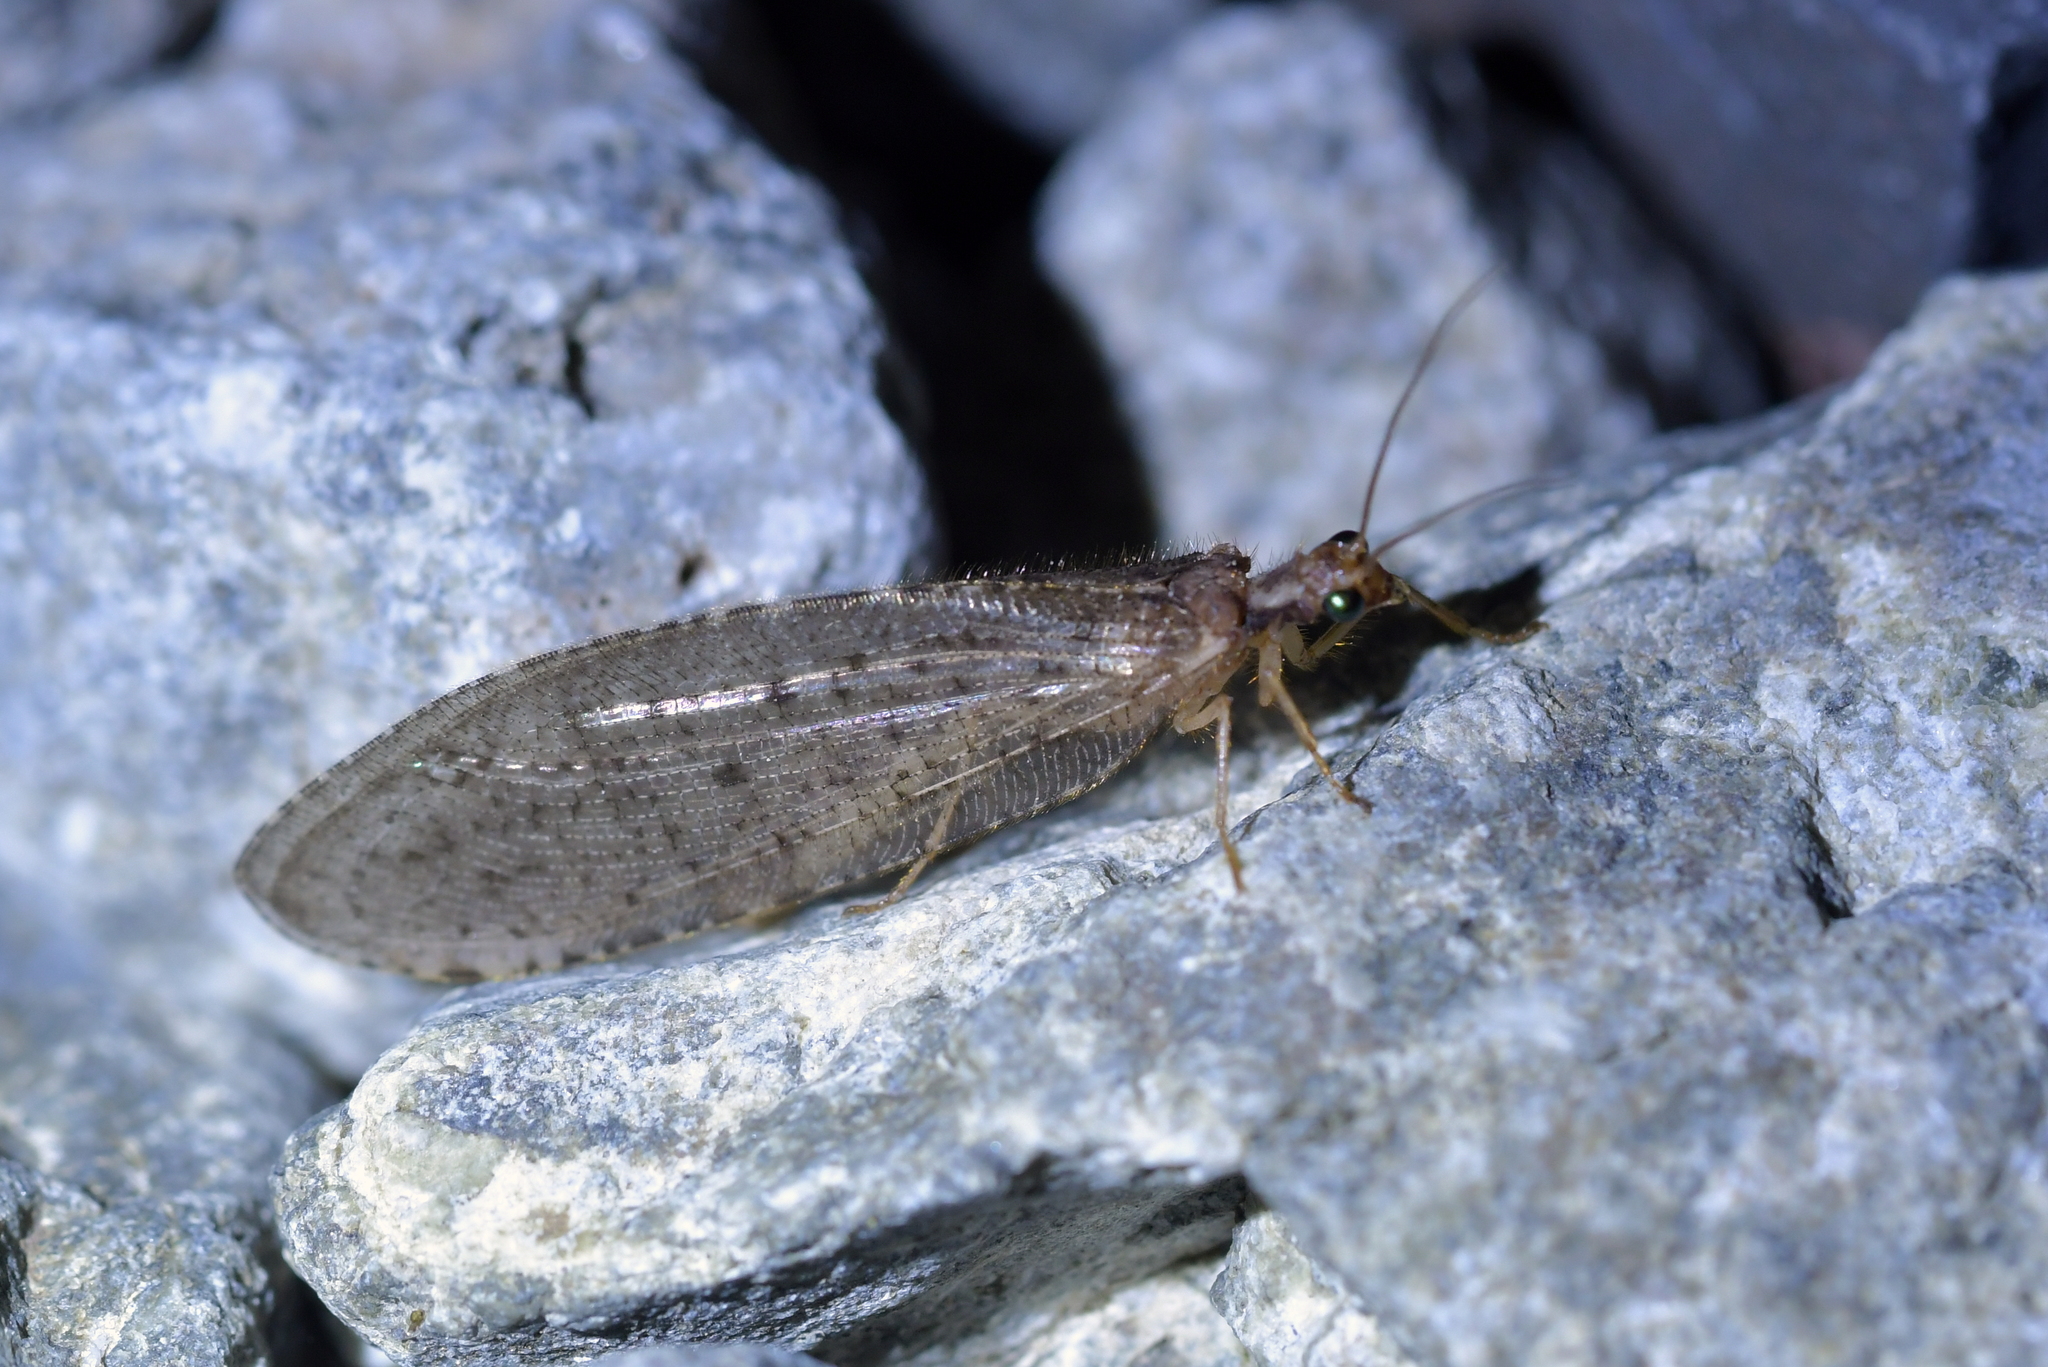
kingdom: Animalia
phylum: Arthropoda
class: Insecta
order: Neuroptera
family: Osmylidae
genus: Kempynus
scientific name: Kempynus latiusculus
